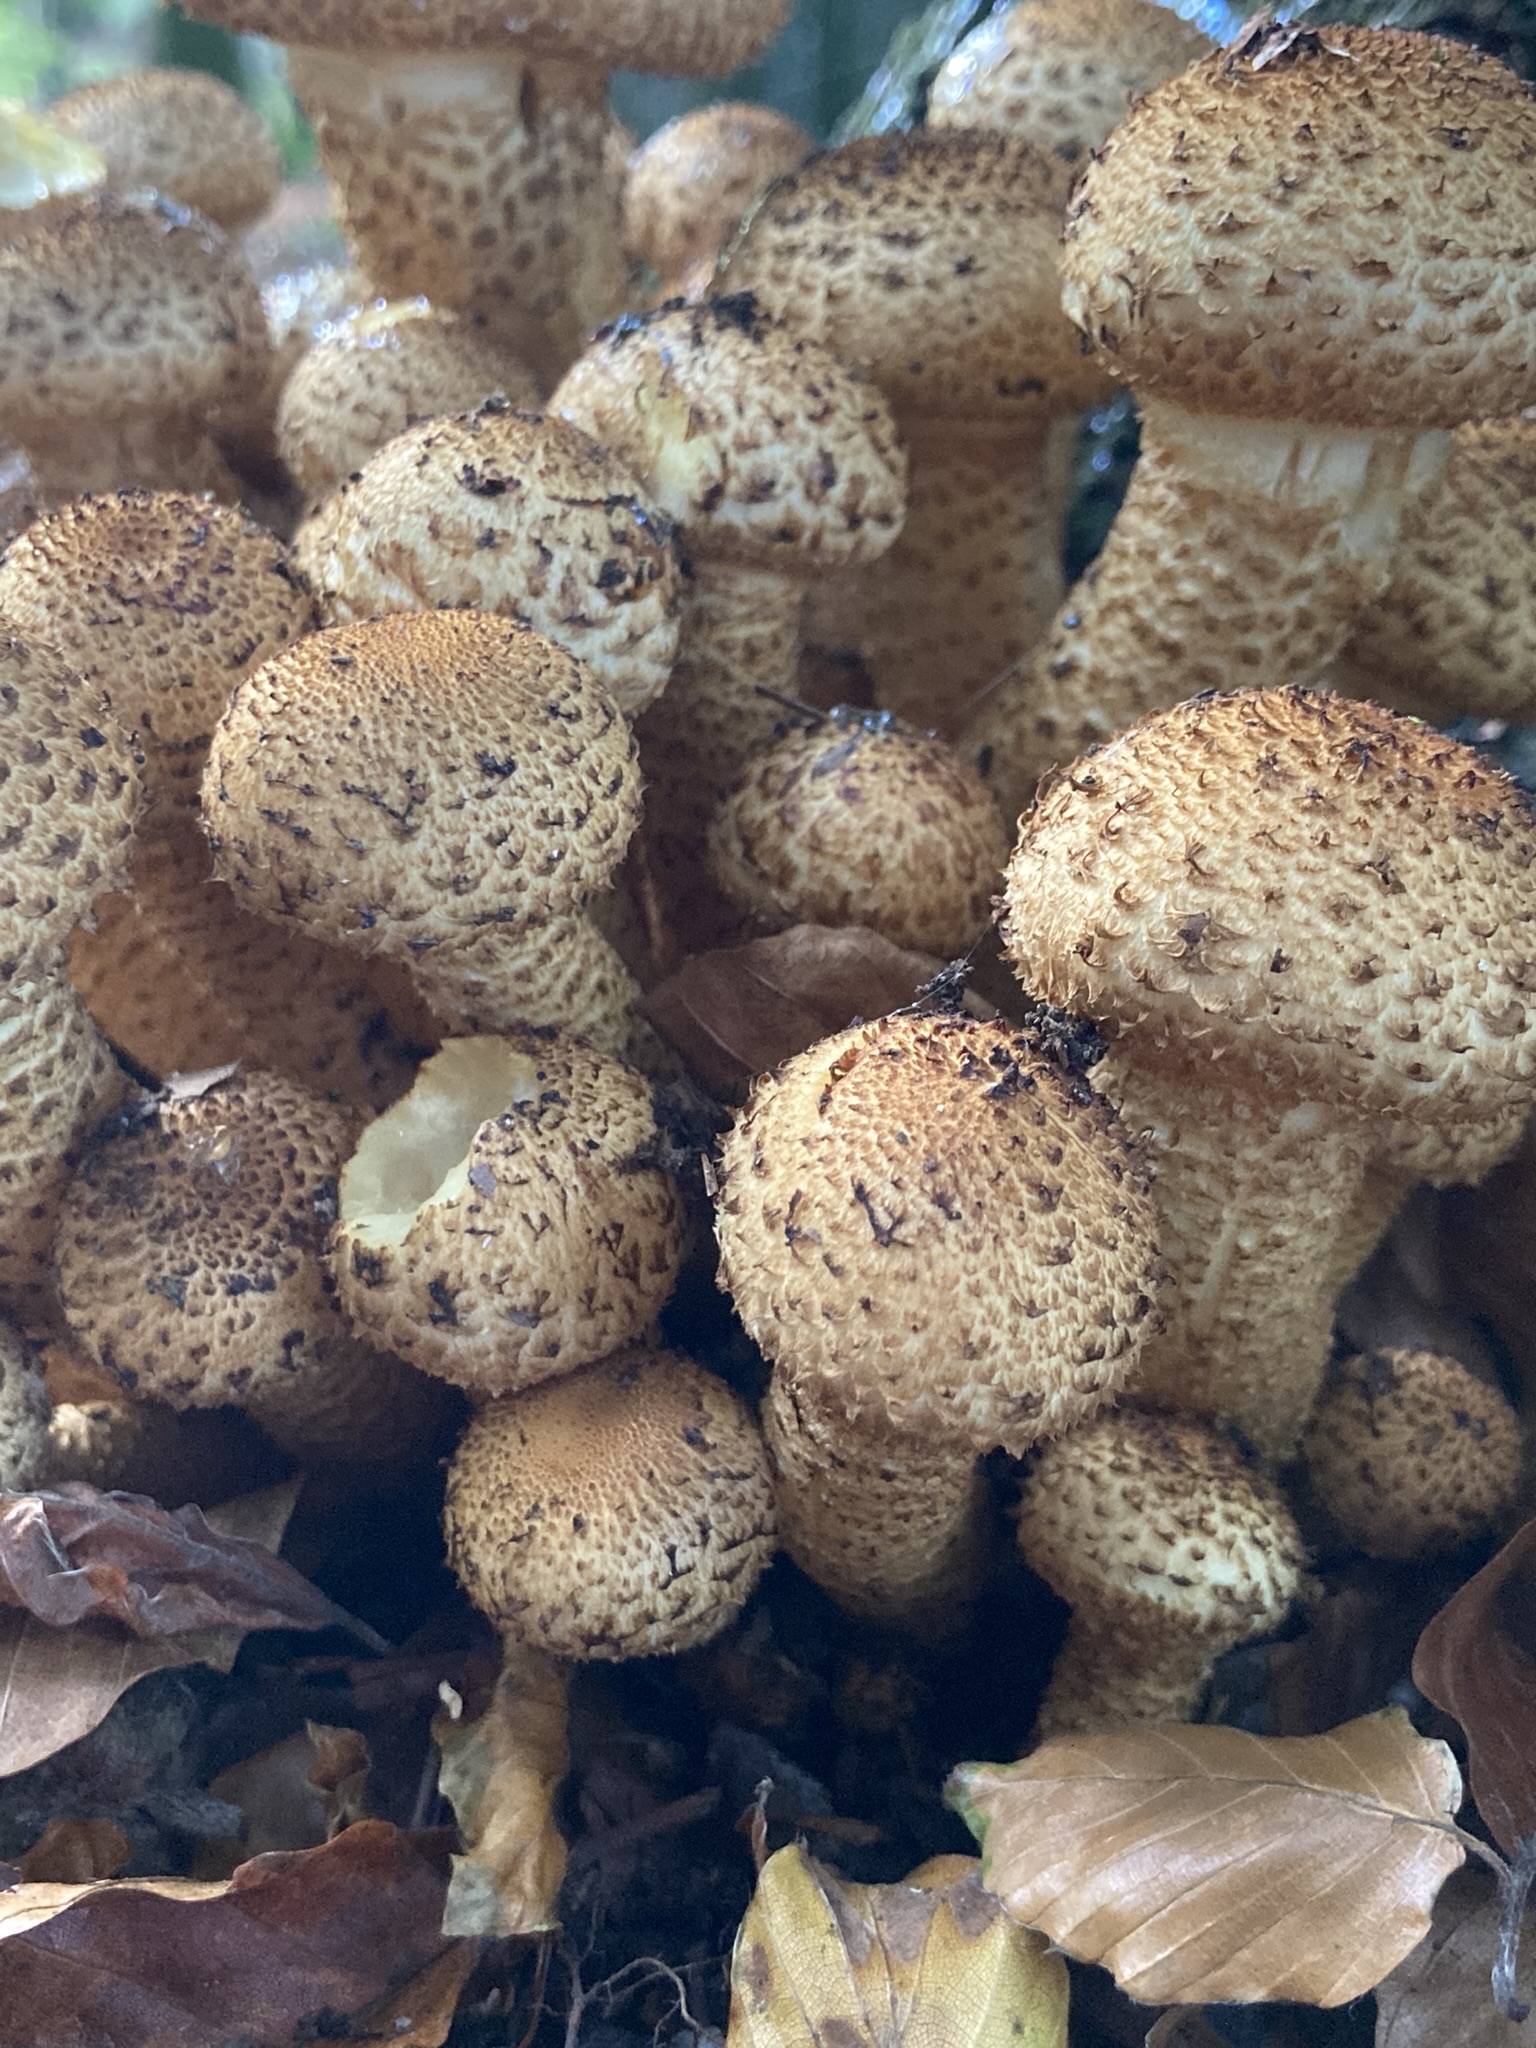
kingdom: Fungi
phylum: Basidiomycota
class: Agaricomycetes
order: Agaricales
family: Strophariaceae
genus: Pholiota
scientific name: Pholiota squarrosa
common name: Shaggy pholiota
